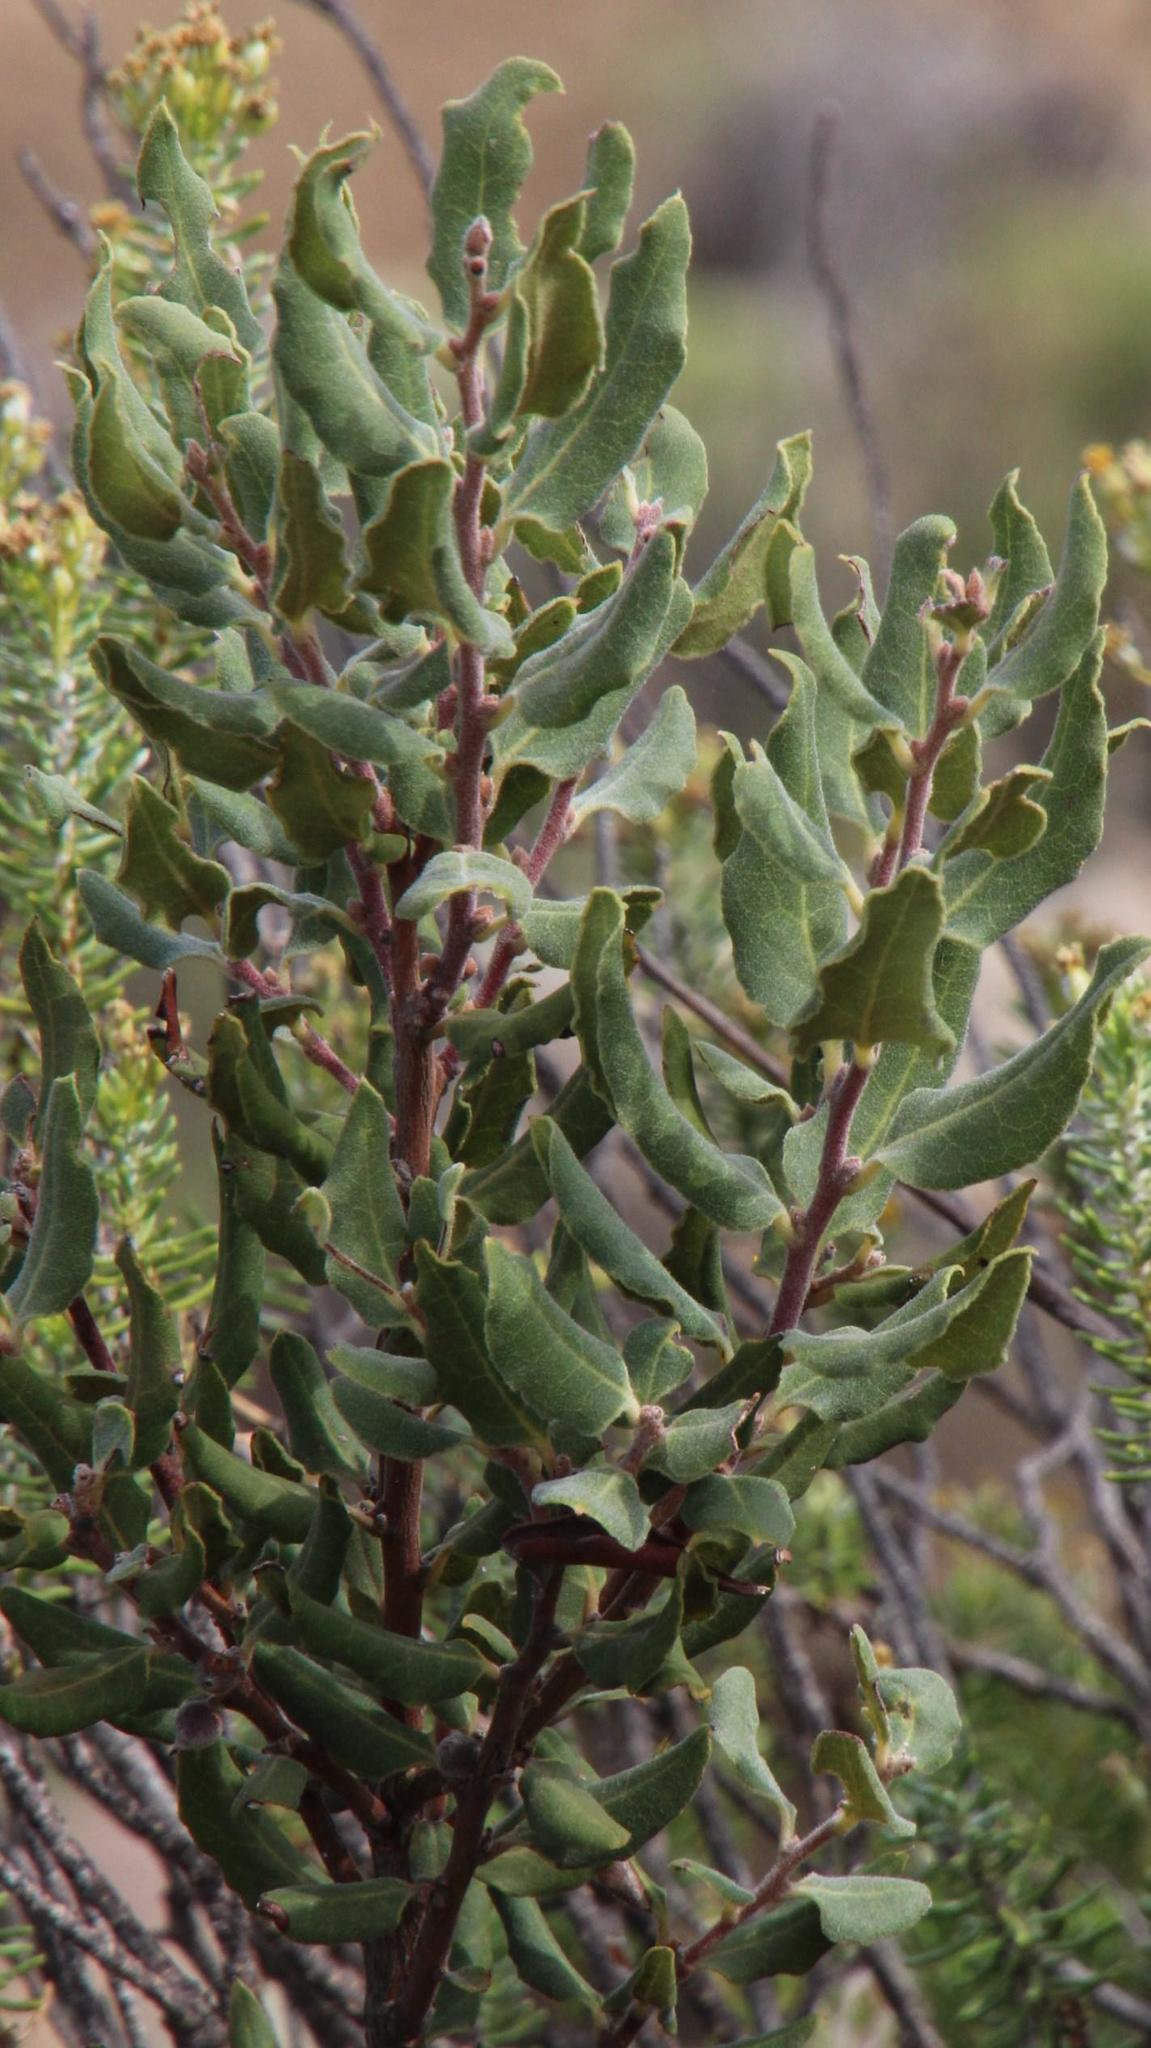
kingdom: Plantae
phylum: Tracheophyta
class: Magnoliopsida
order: Ericales
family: Ebenaceae
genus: Euclea
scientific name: Euclea coriacea
